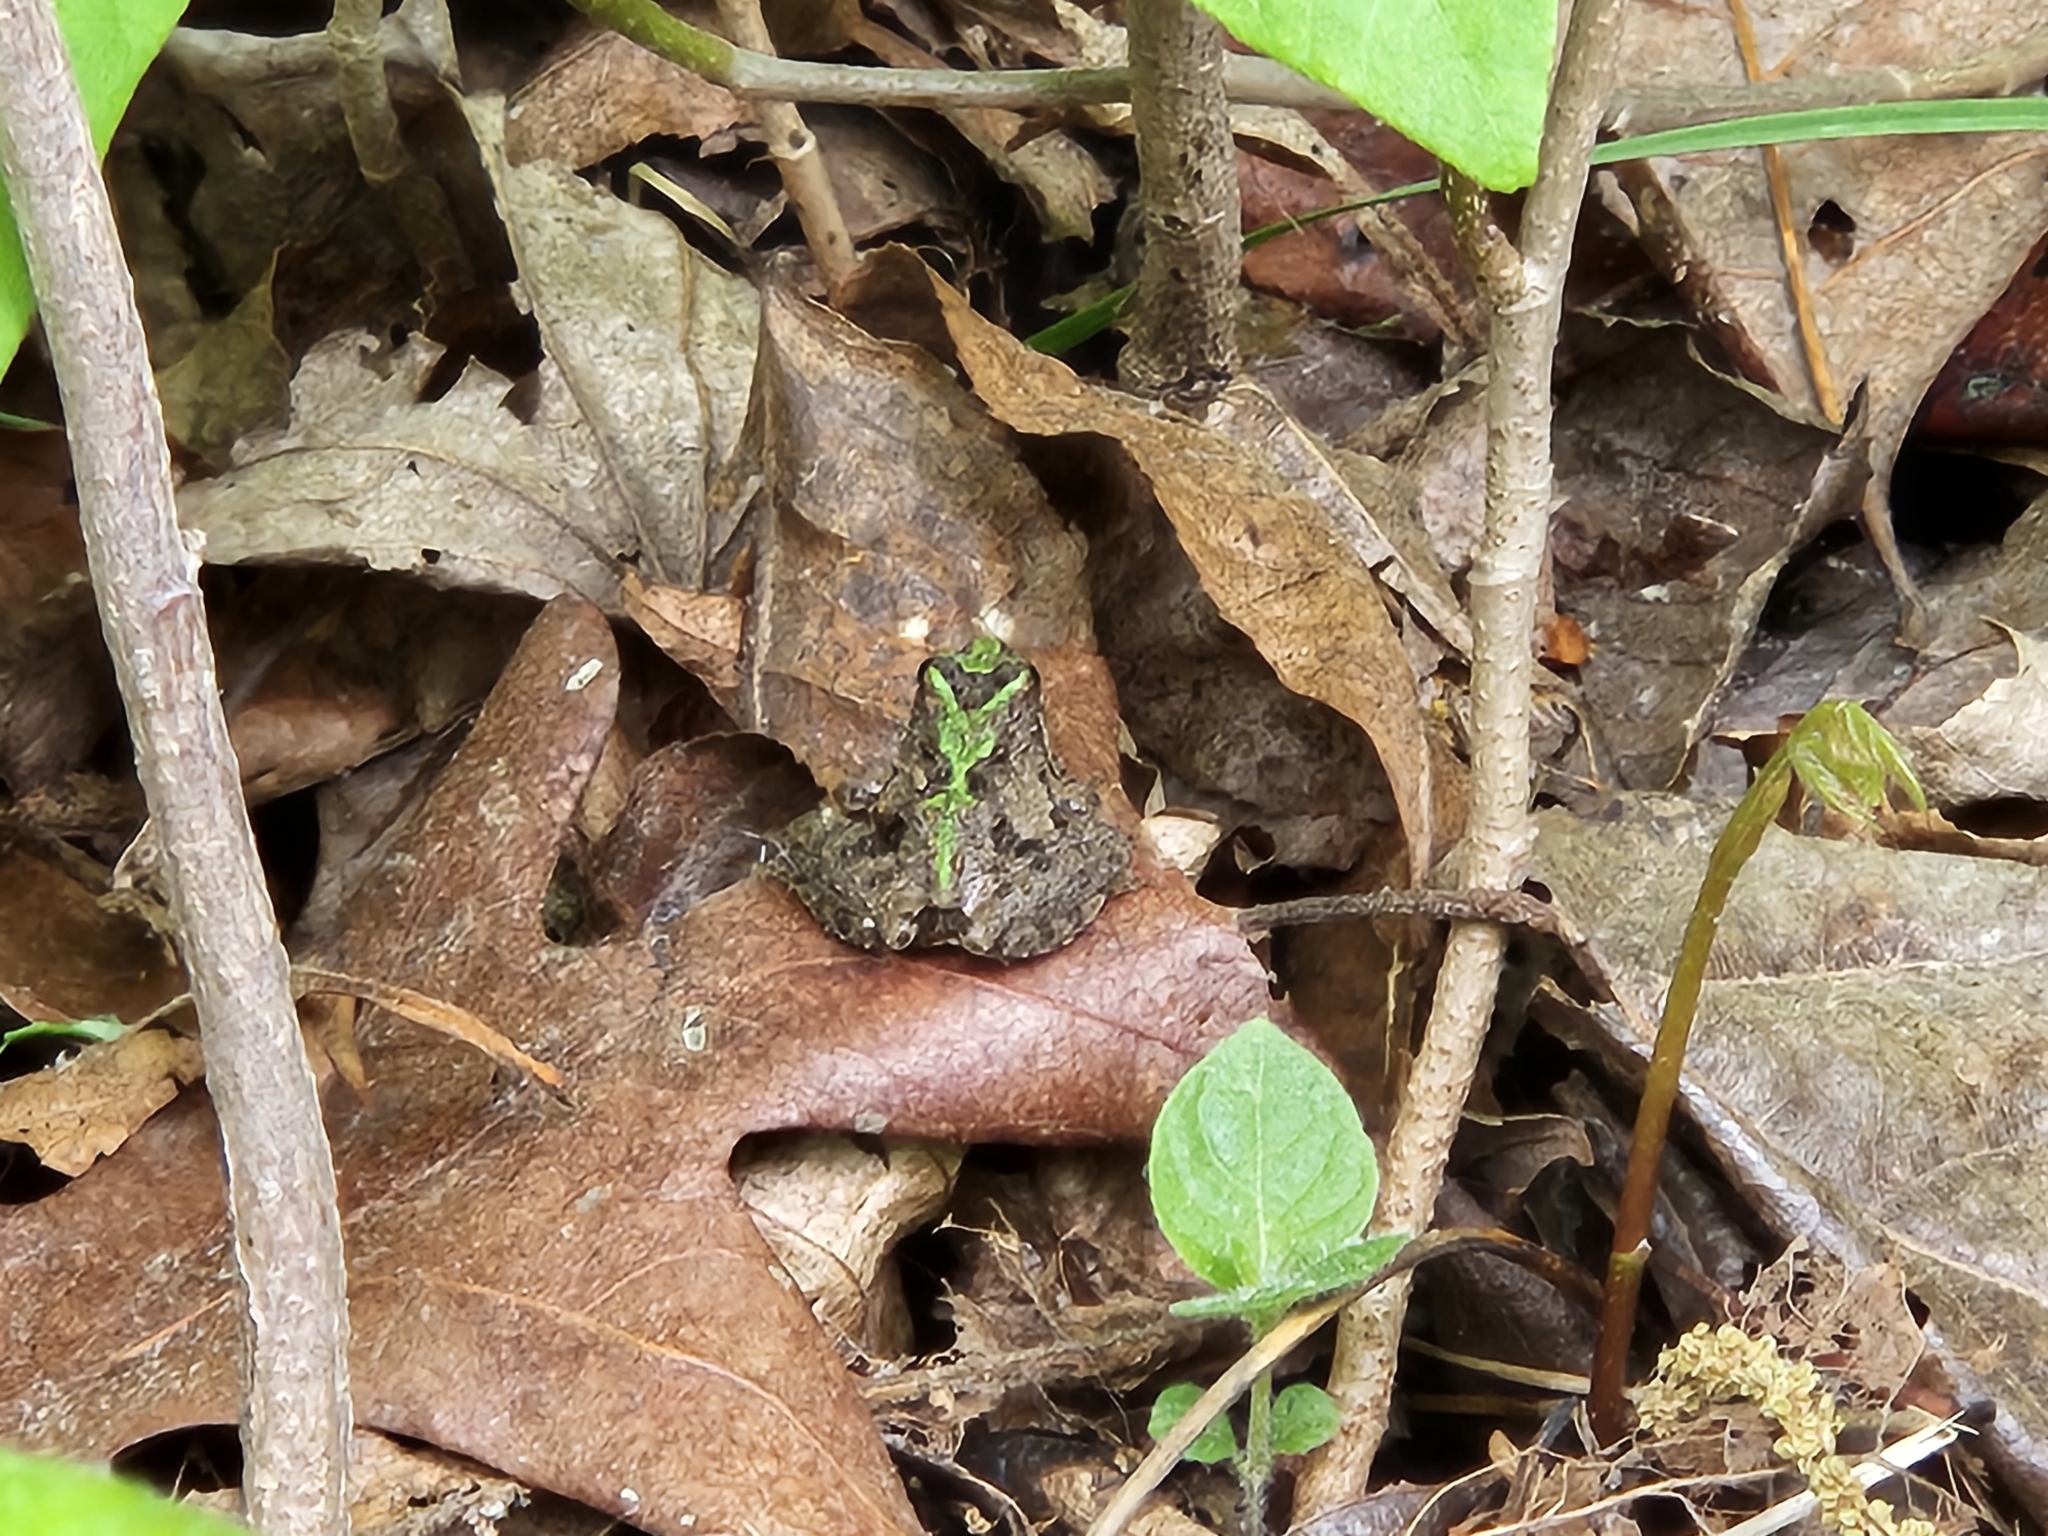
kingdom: Animalia
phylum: Chordata
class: Amphibia
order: Anura
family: Hylidae
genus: Acris
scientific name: Acris crepitans
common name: Northern cricket frog
